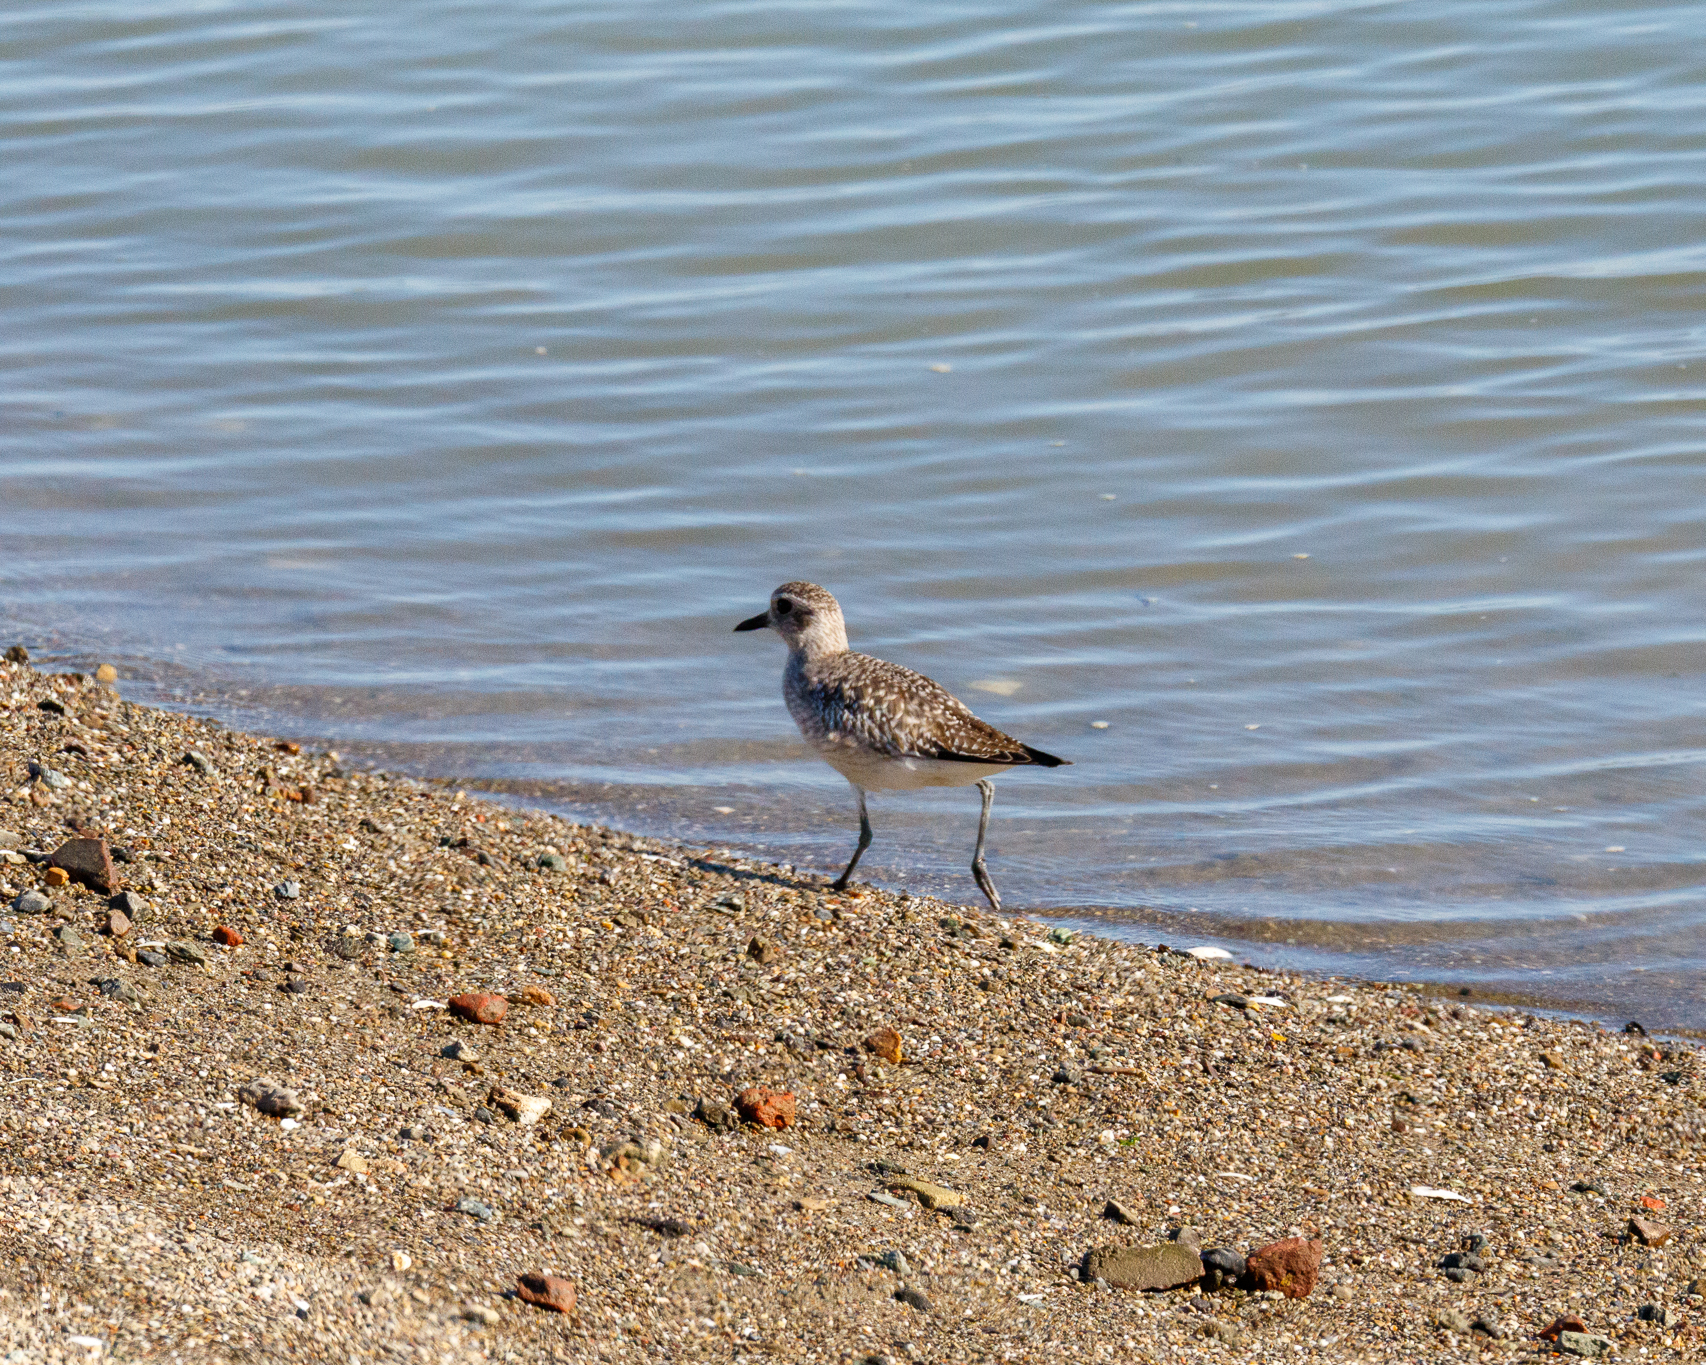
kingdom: Animalia
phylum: Chordata
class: Aves
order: Charadriiformes
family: Charadriidae
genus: Pluvialis
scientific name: Pluvialis squatarola
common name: Grey plover
